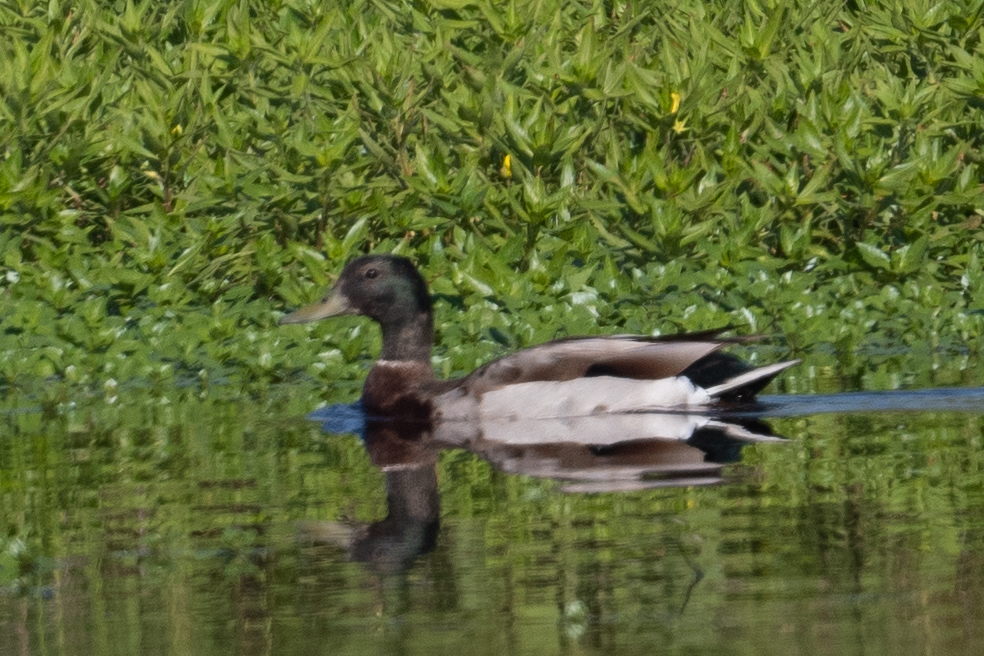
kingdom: Animalia
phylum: Chordata
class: Aves
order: Anseriformes
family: Anatidae
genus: Anas
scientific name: Anas platyrhynchos
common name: Mallard
